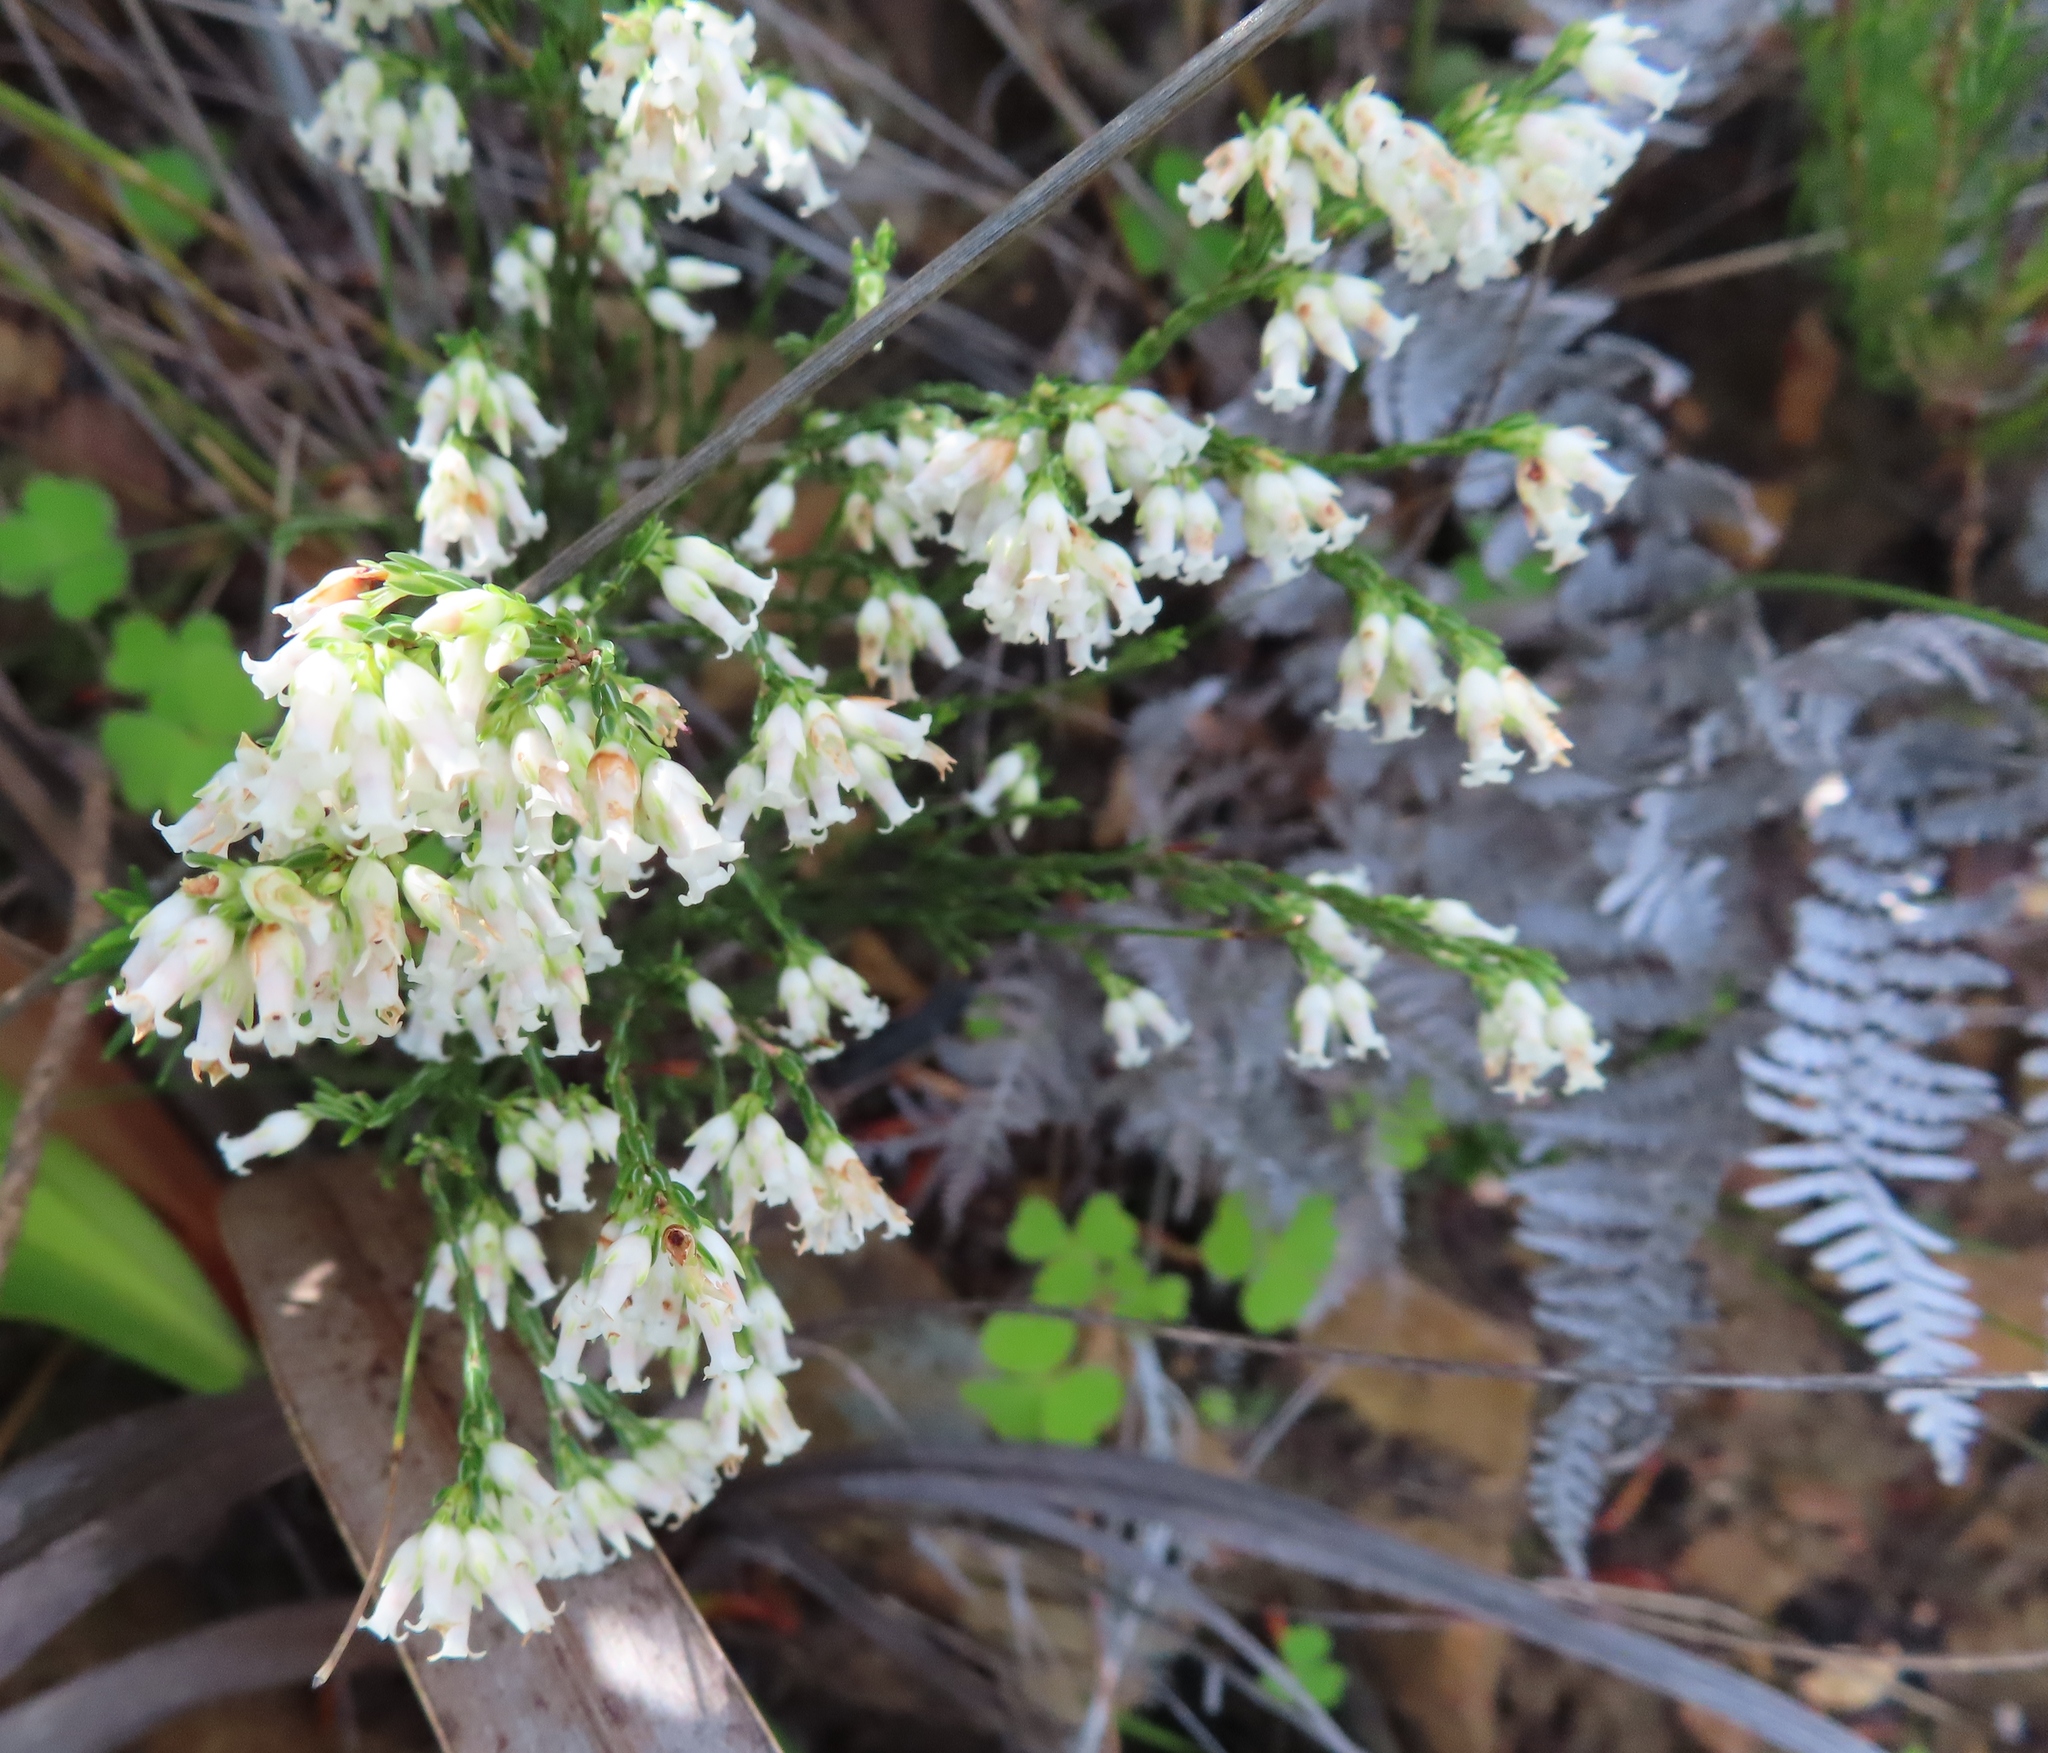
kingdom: Plantae
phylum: Tracheophyta
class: Magnoliopsida
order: Ericales
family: Ericaceae
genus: Erica
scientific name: Erica lutea
